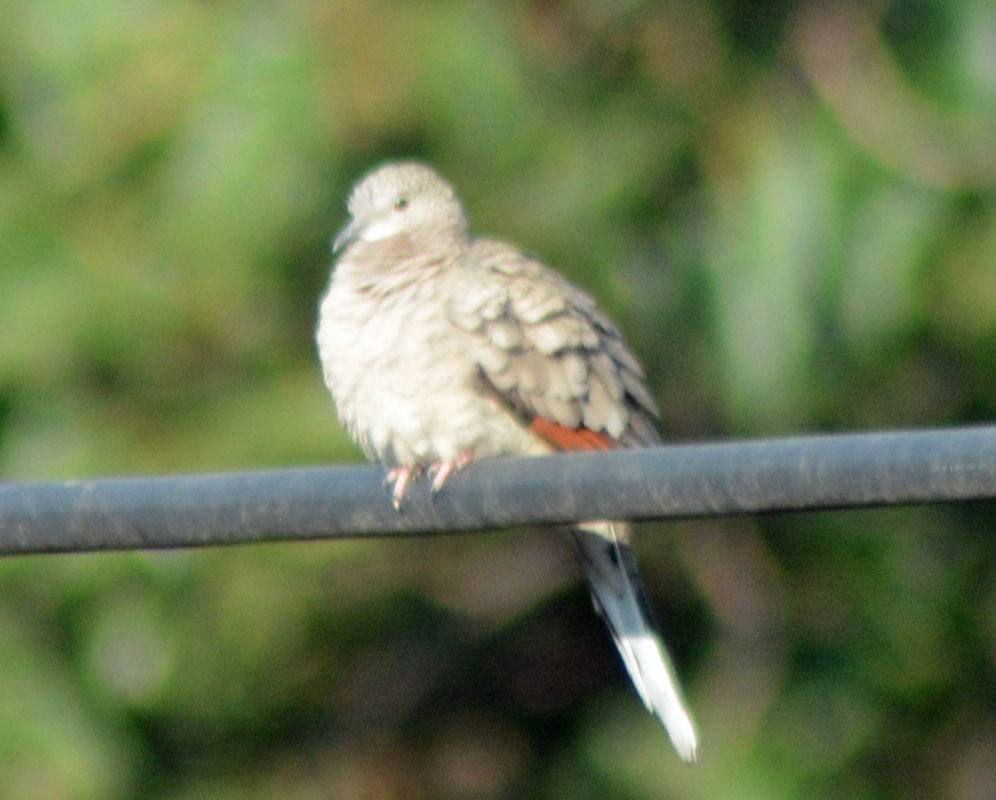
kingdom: Animalia
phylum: Chordata
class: Aves
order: Columbiformes
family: Columbidae
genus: Columbina
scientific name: Columbina inca
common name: Inca dove
